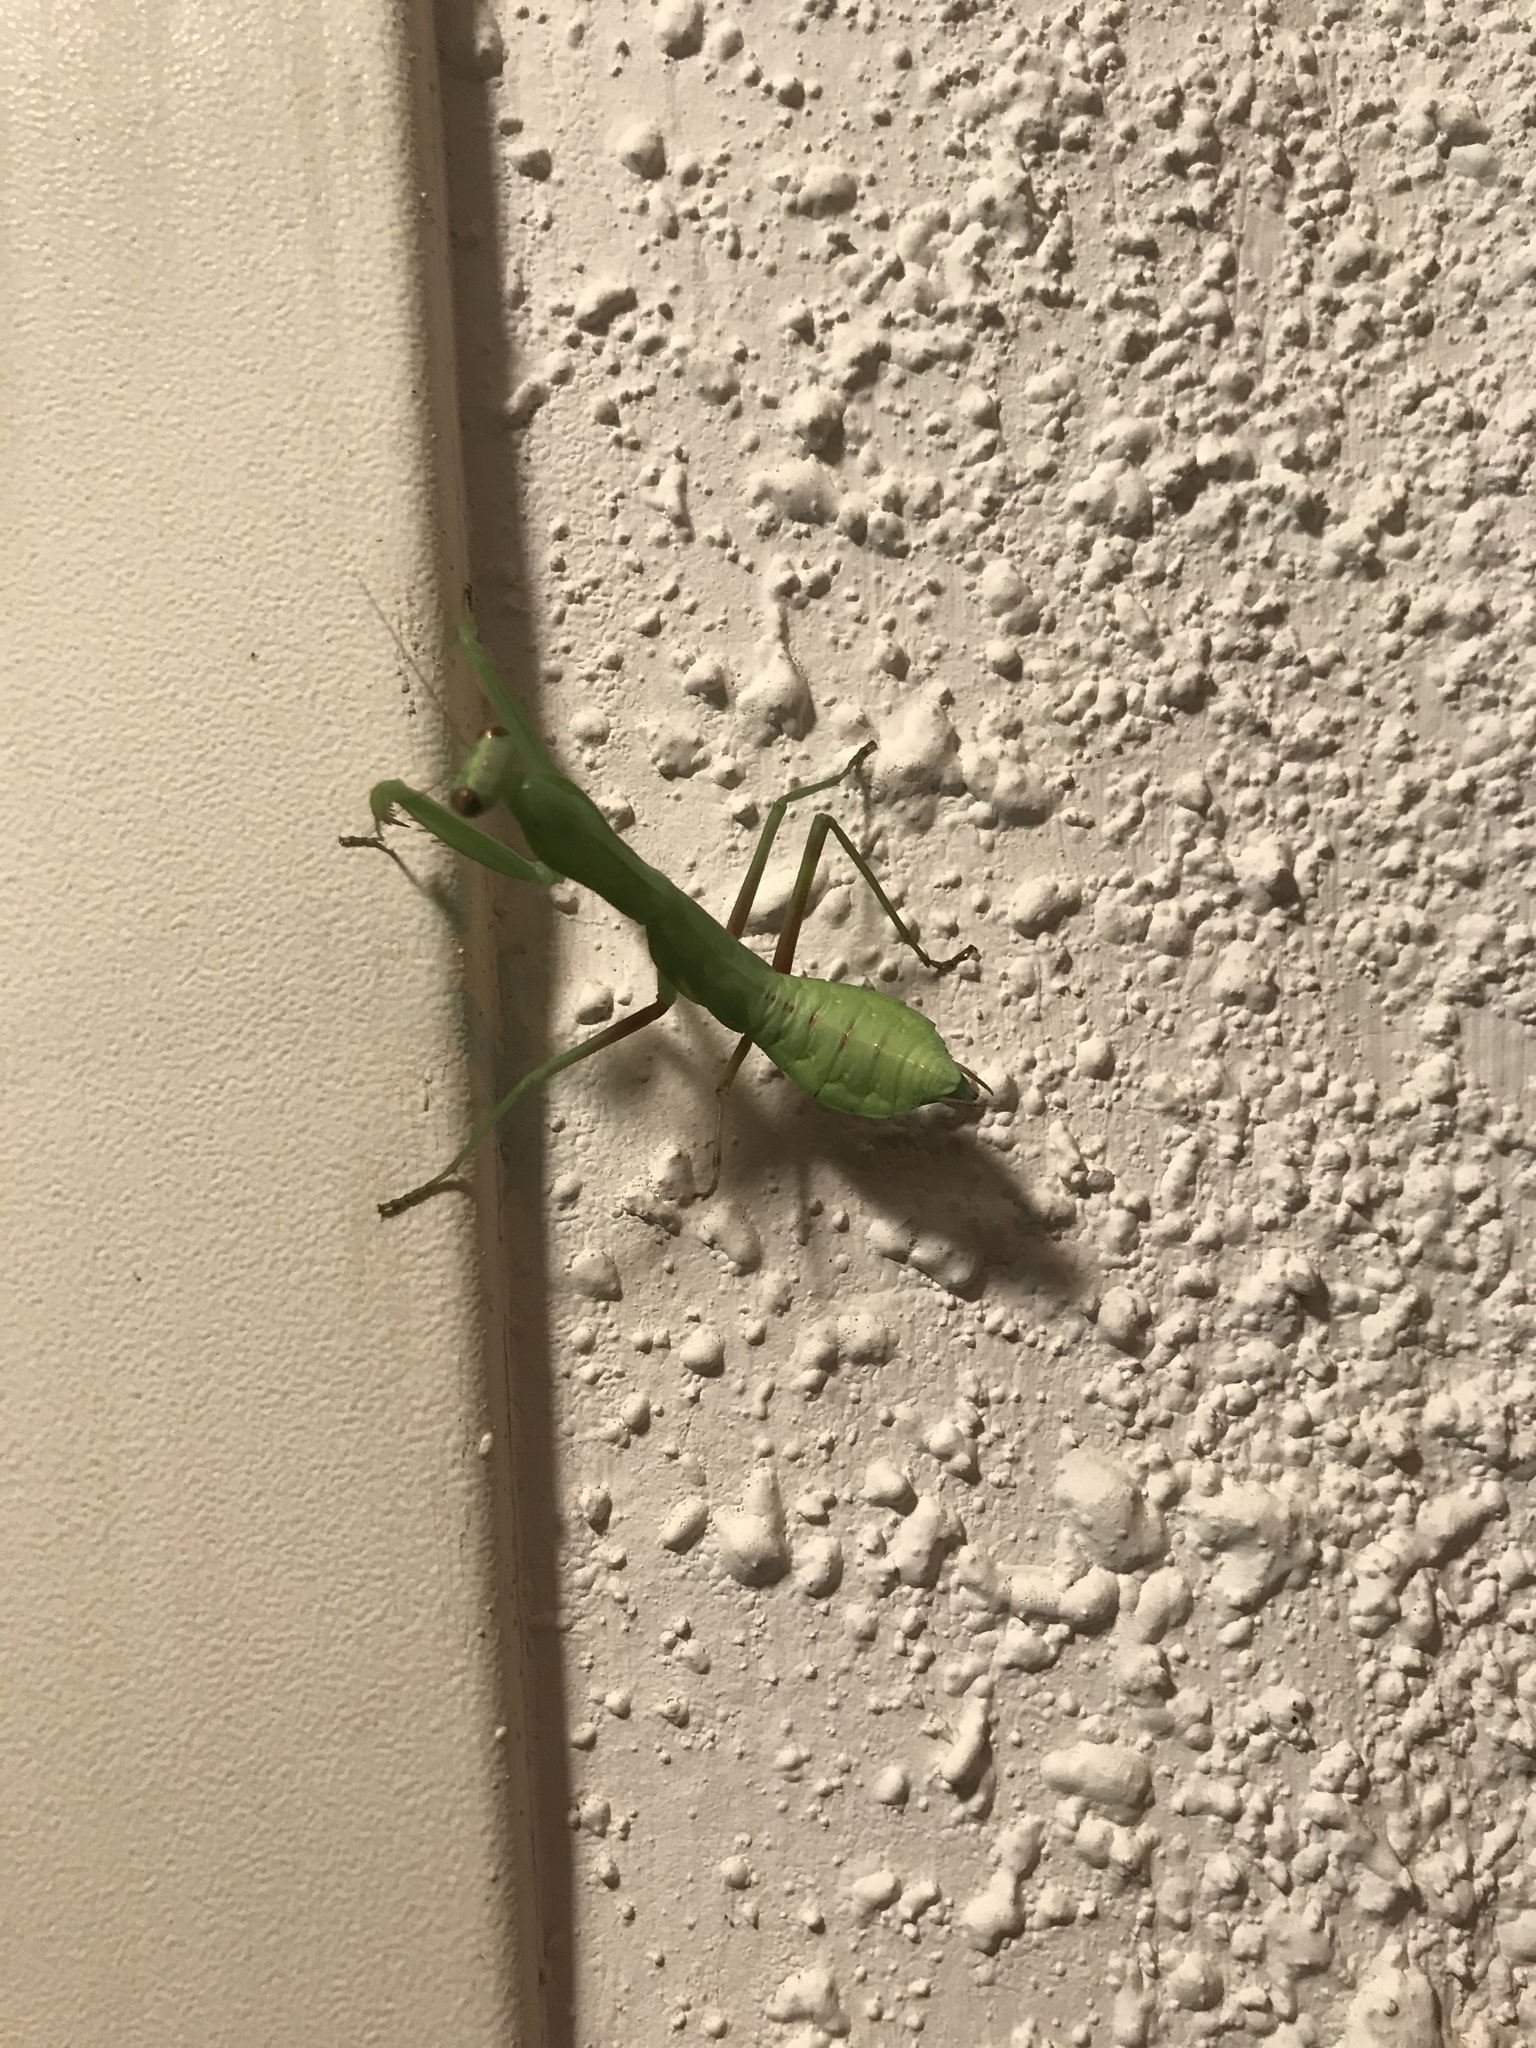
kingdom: Animalia
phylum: Arthropoda
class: Insecta
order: Mantodea
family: Mantidae
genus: Hierodula
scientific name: Hierodula transcaucasica
